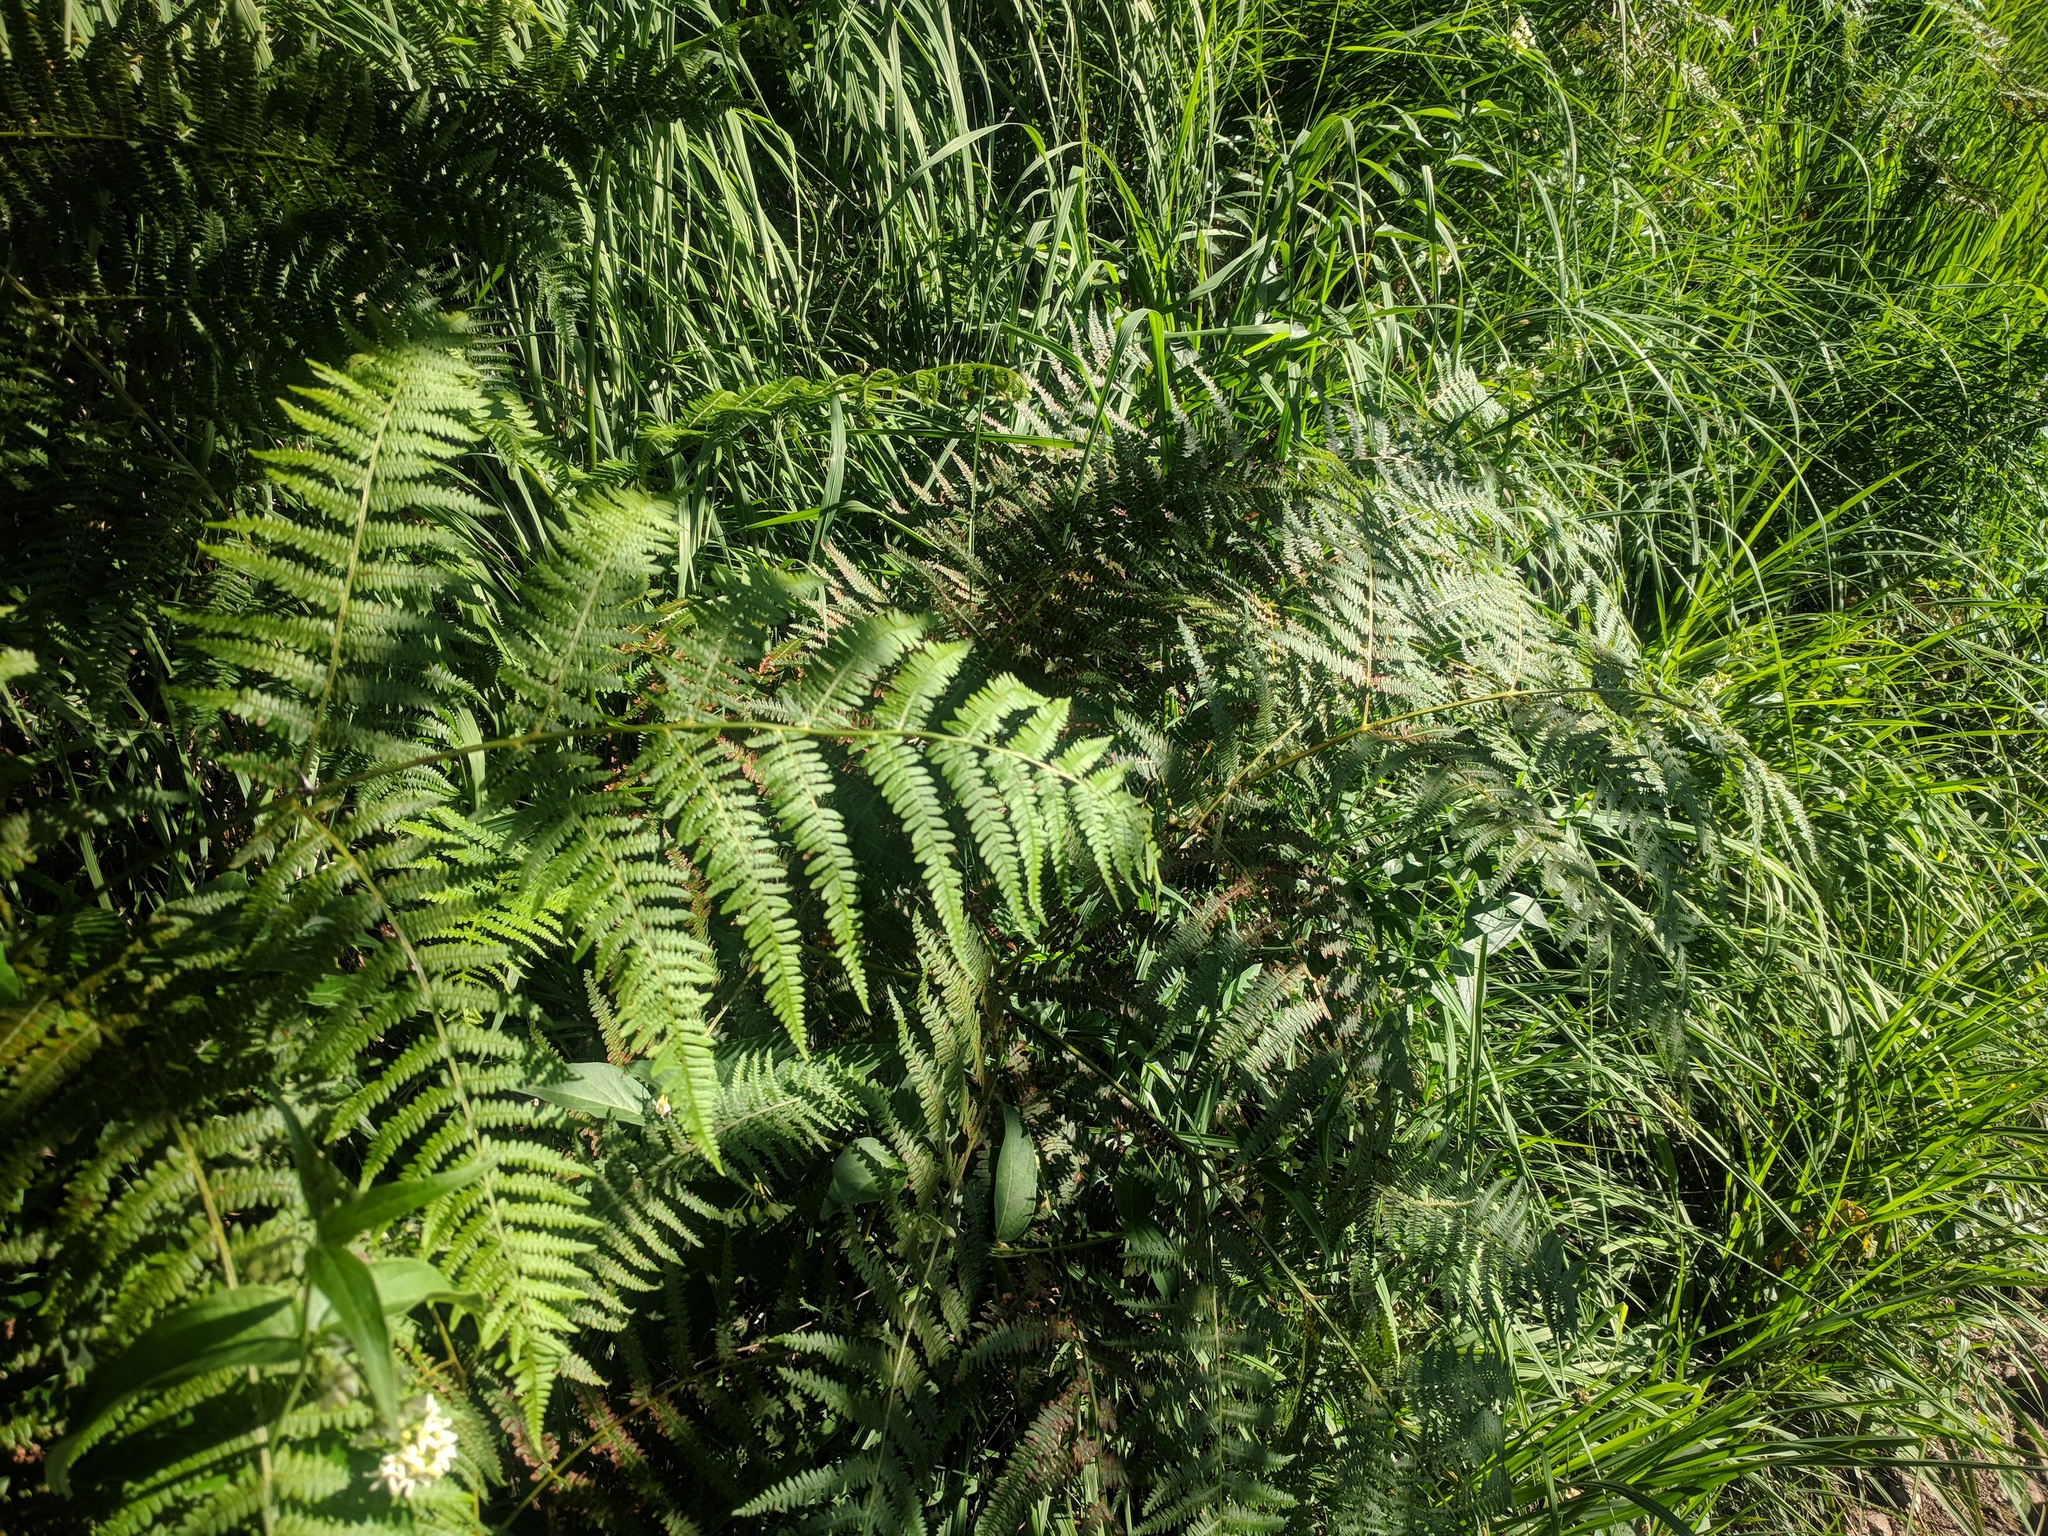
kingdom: Plantae
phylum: Tracheophyta
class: Polypodiopsida
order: Polypodiales
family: Dennstaedtiaceae
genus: Pteridium
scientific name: Pteridium aquilinum
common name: Bracken
